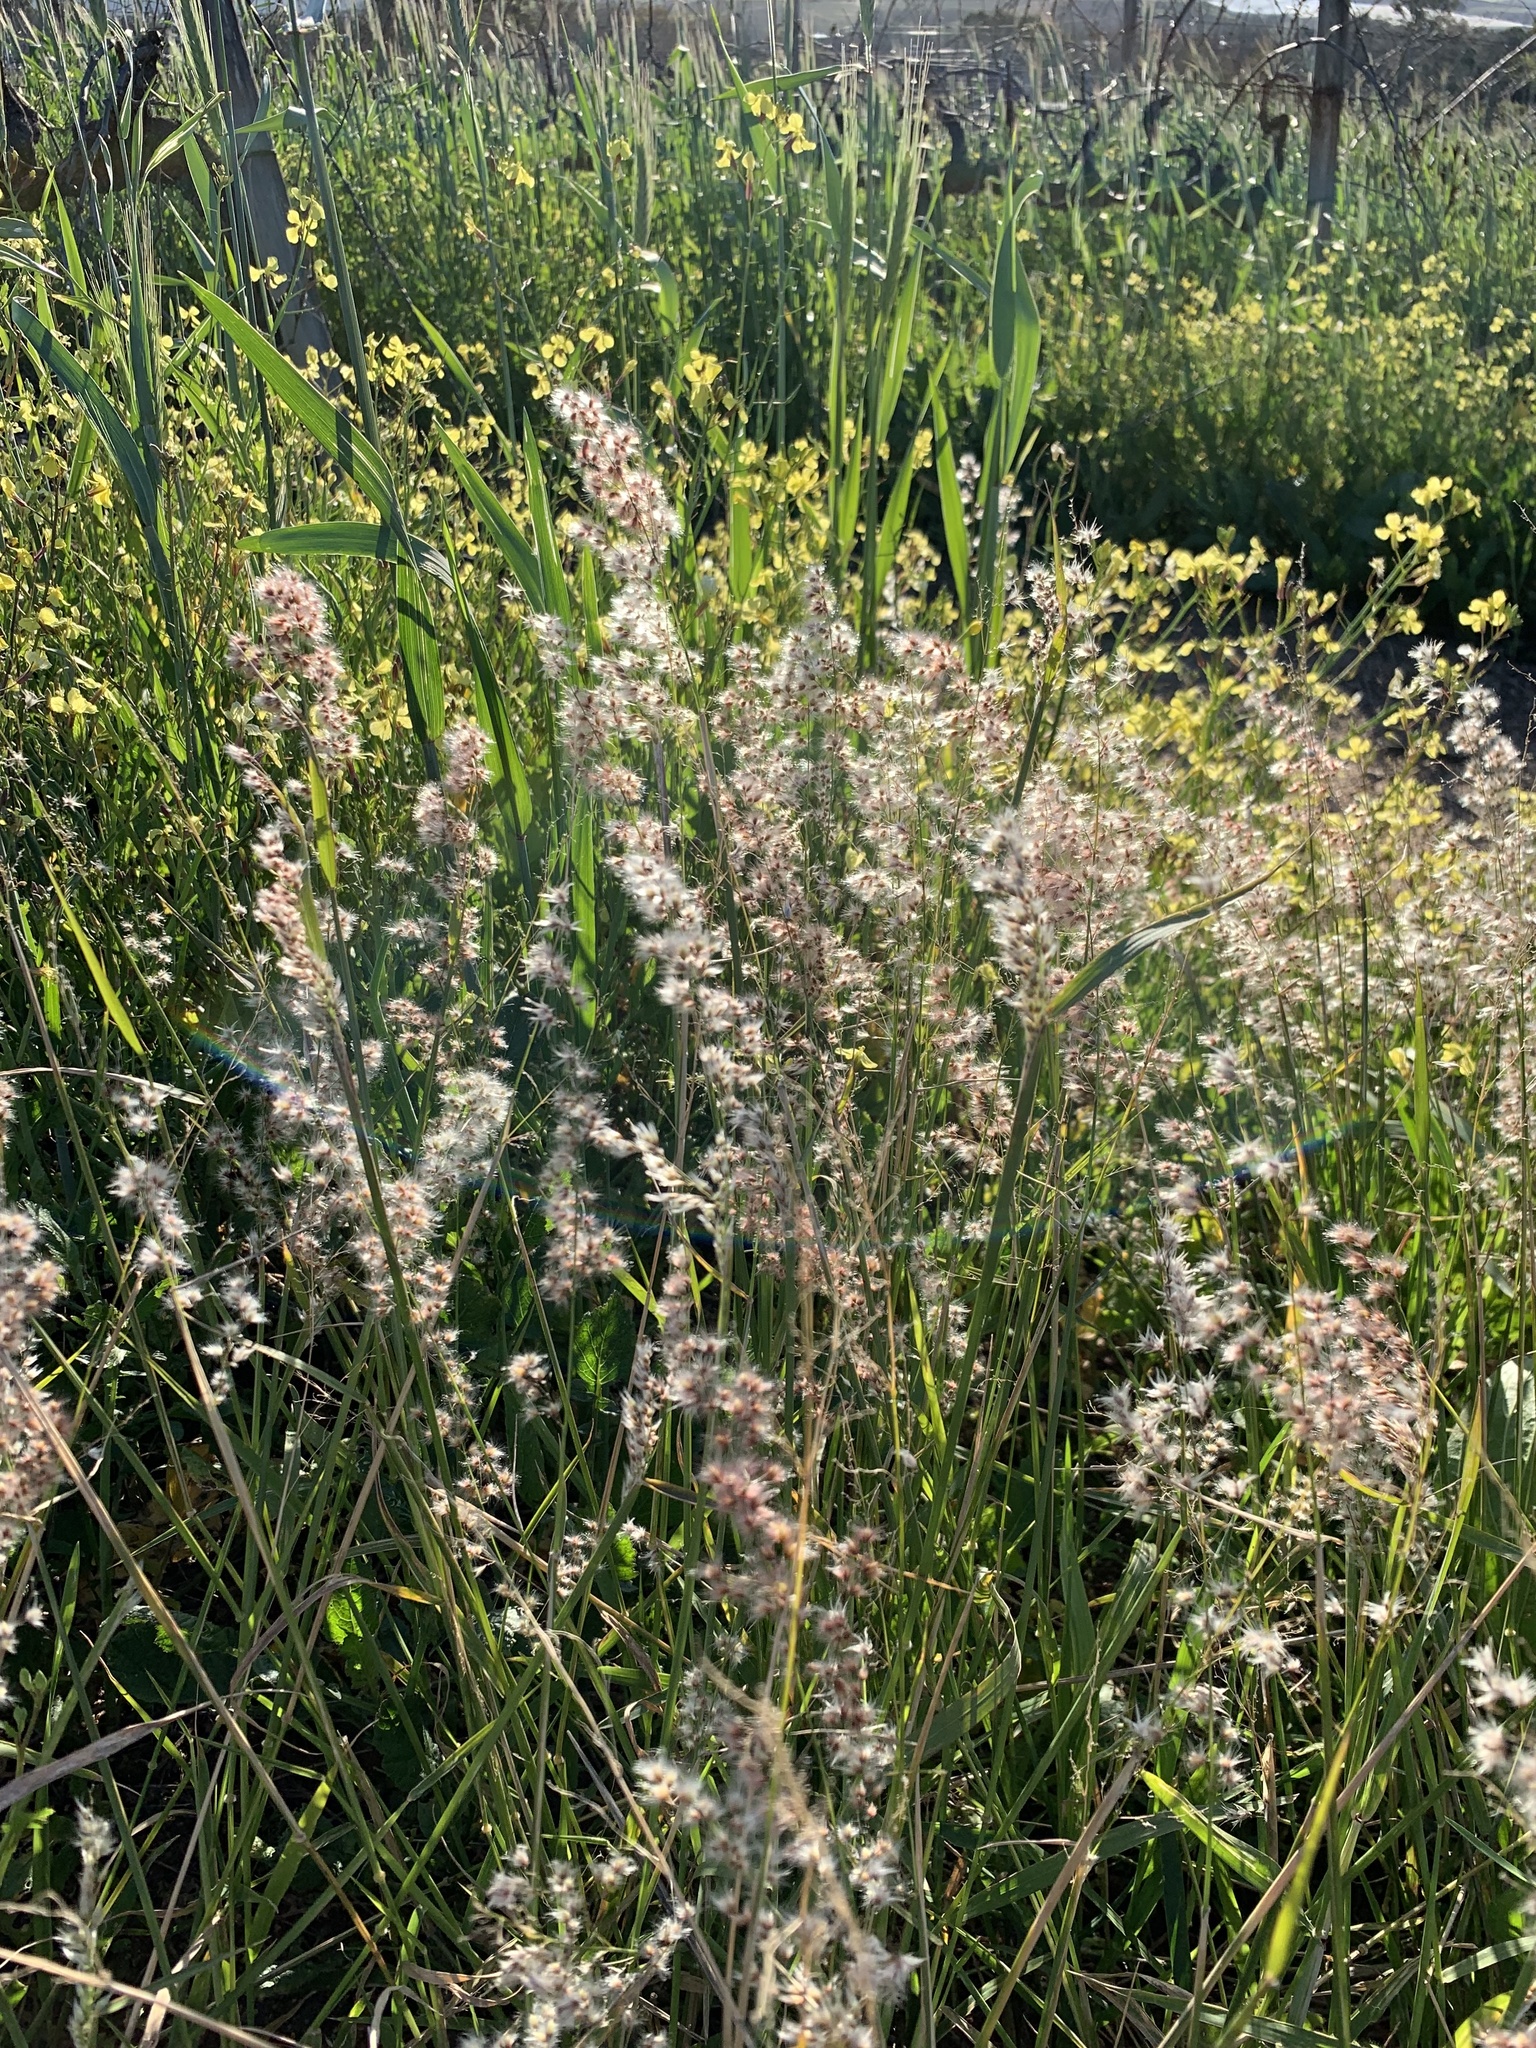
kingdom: Plantae
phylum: Tracheophyta
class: Liliopsida
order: Poales
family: Poaceae
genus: Melinis
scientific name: Melinis repens
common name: Rose natal grass
